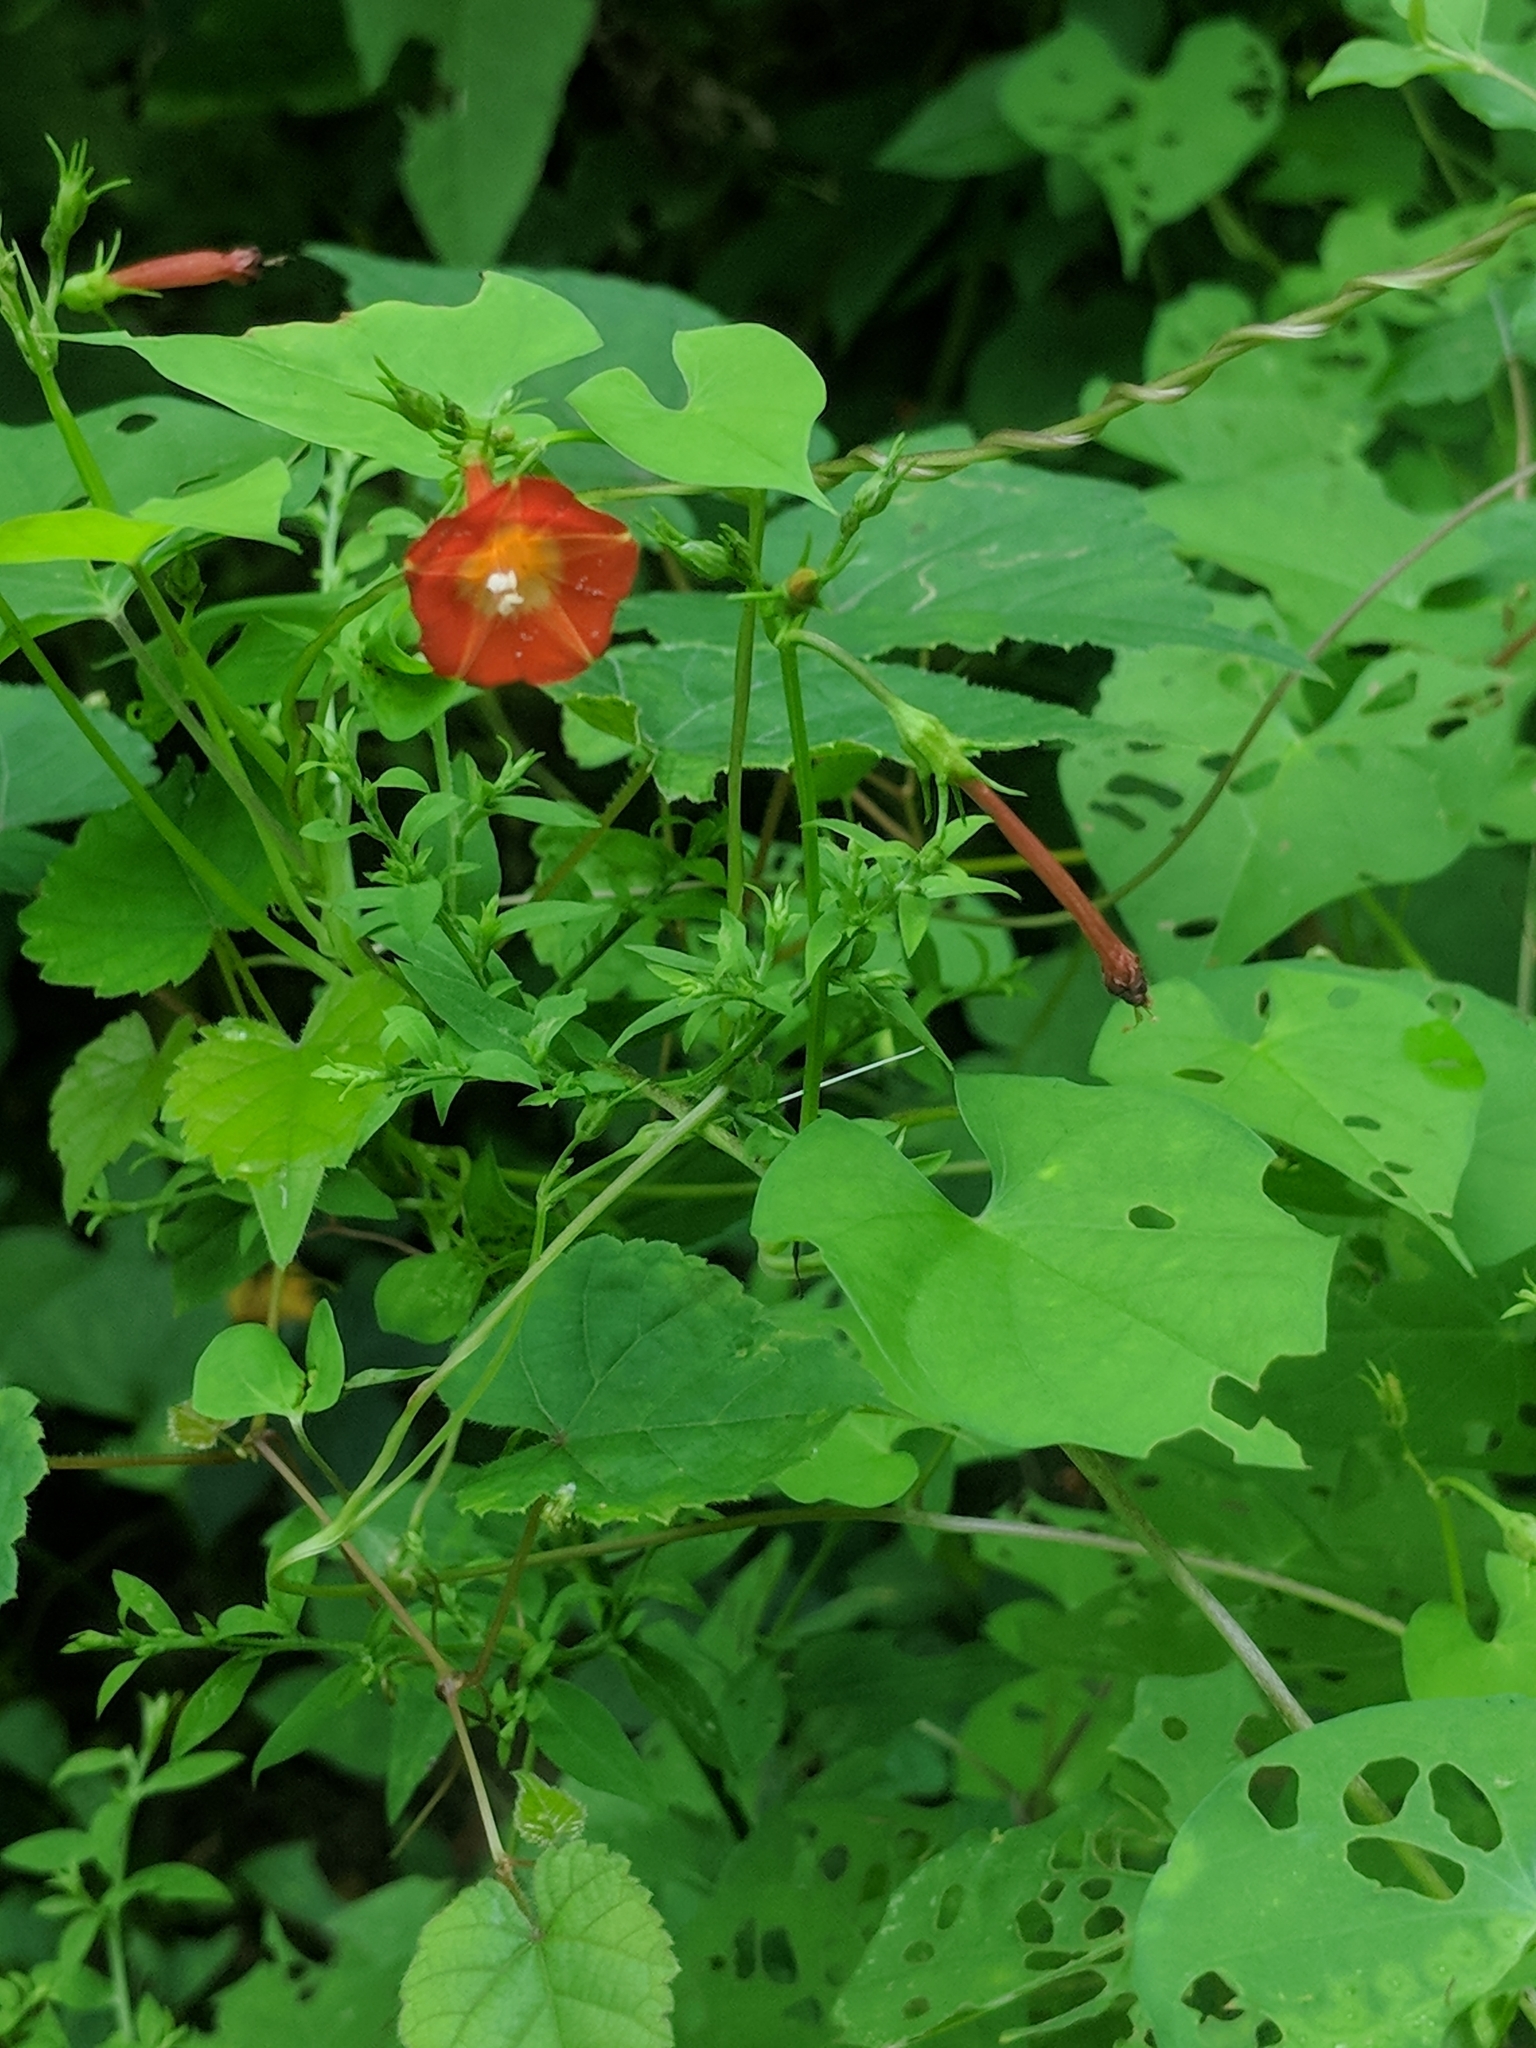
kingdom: Plantae
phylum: Tracheophyta
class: Magnoliopsida
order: Solanales
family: Convolvulaceae
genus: Ipomoea
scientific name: Ipomoea coccinea
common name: Red morning-glory
